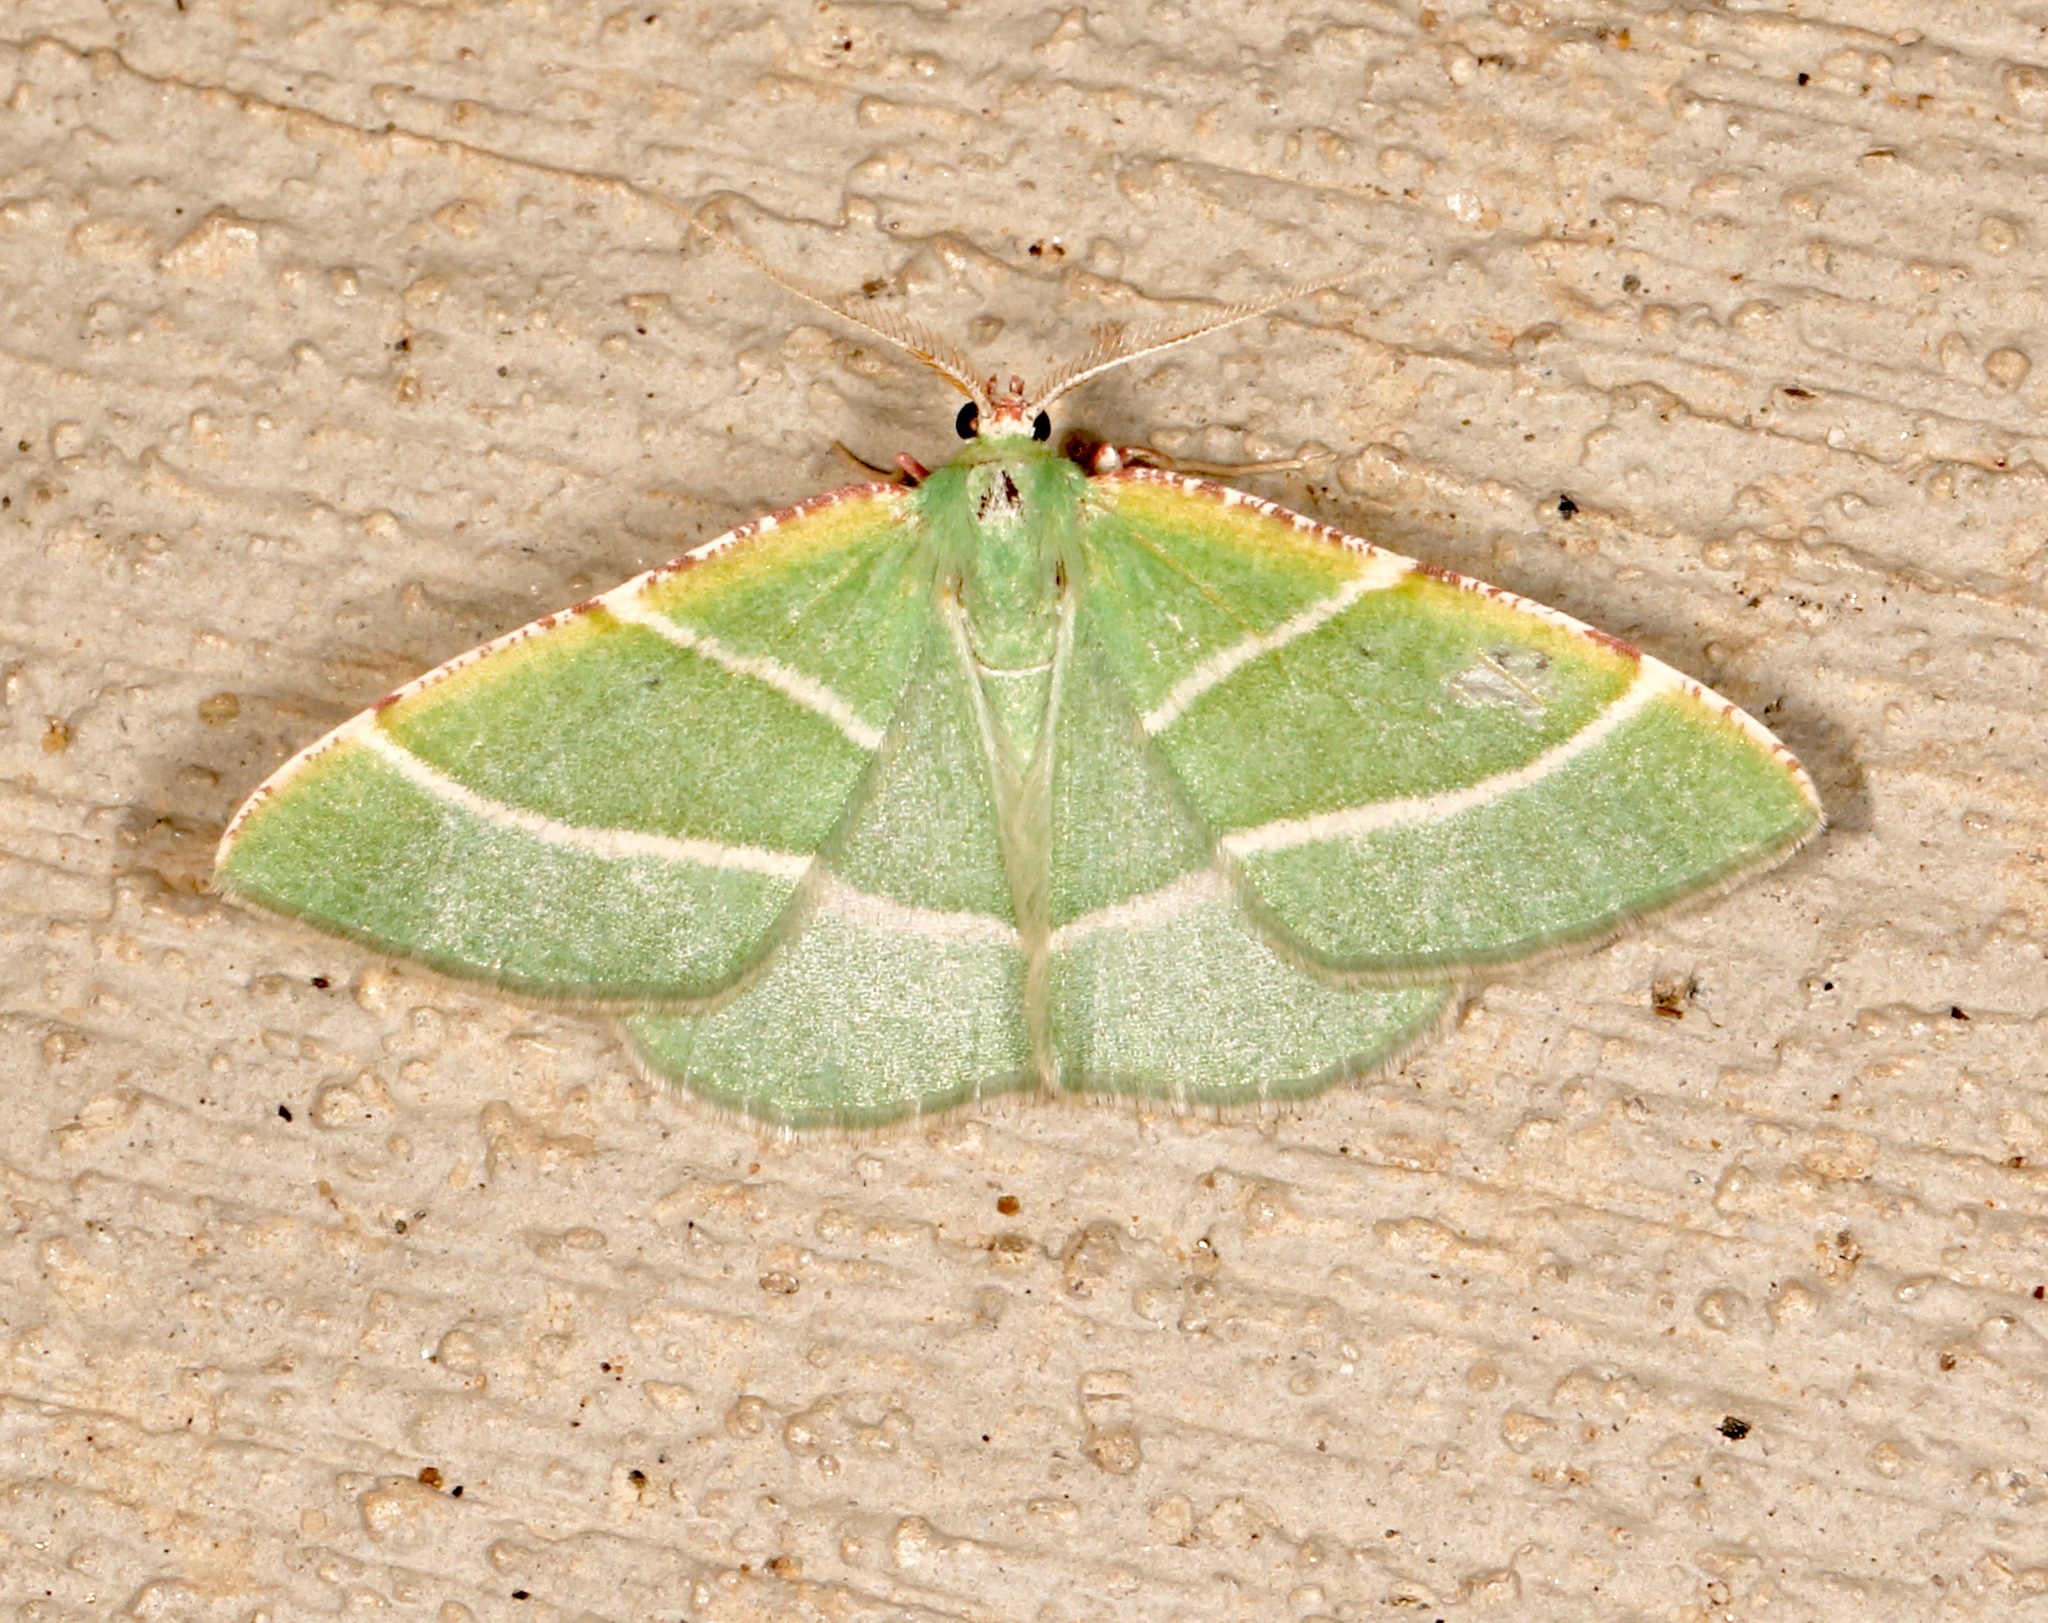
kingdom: Animalia
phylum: Arthropoda
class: Insecta
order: Lepidoptera
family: Geometridae
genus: Dichordophora
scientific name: Dichordophora phoenix
